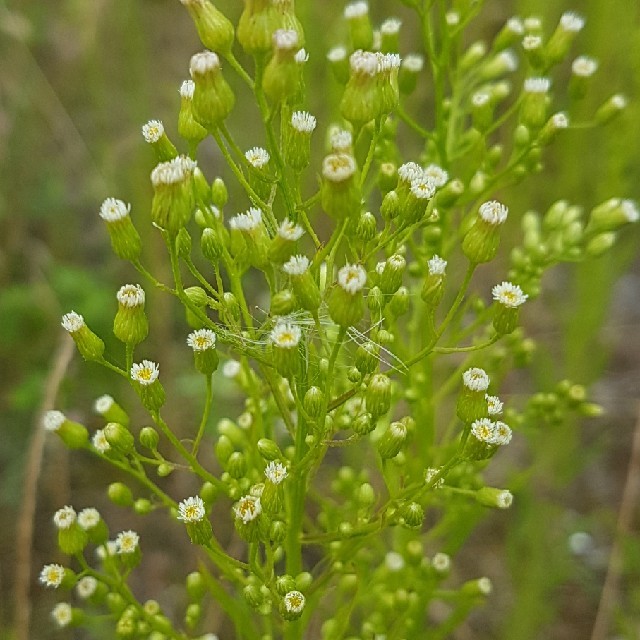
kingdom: Plantae
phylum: Tracheophyta
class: Magnoliopsida
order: Asterales
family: Asteraceae
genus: Erigeron
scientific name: Erigeron canadensis
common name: Canadian fleabane
